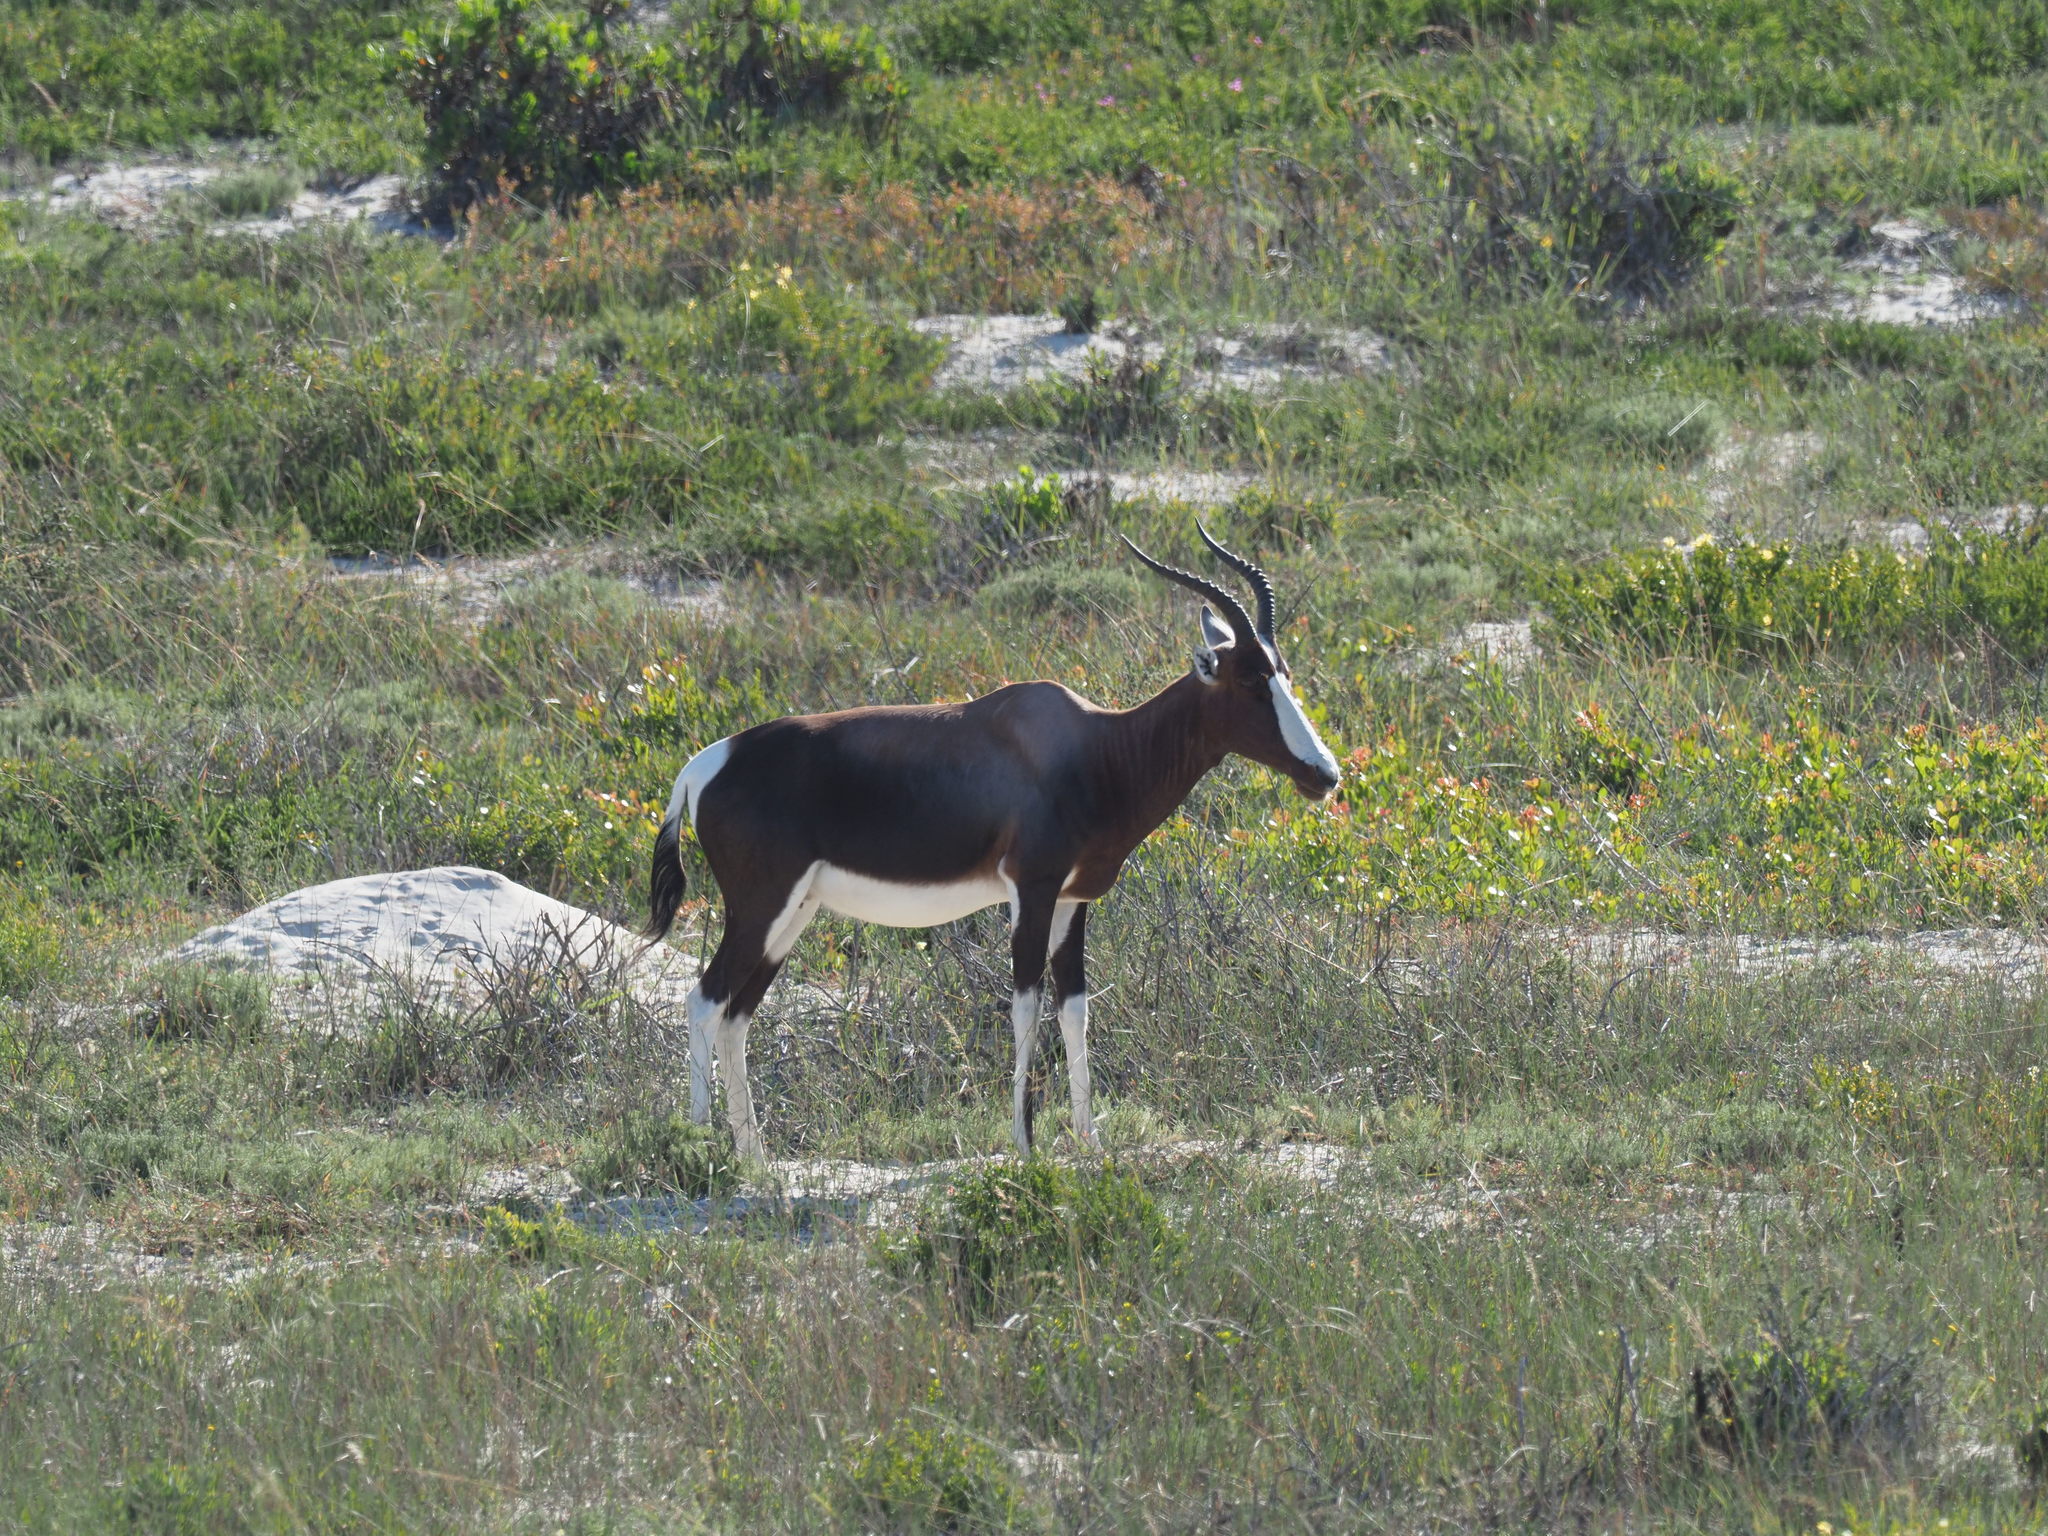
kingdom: Animalia
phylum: Chordata
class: Mammalia
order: Artiodactyla
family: Bovidae
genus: Damaliscus
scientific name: Damaliscus pygargus
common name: Bontebok
